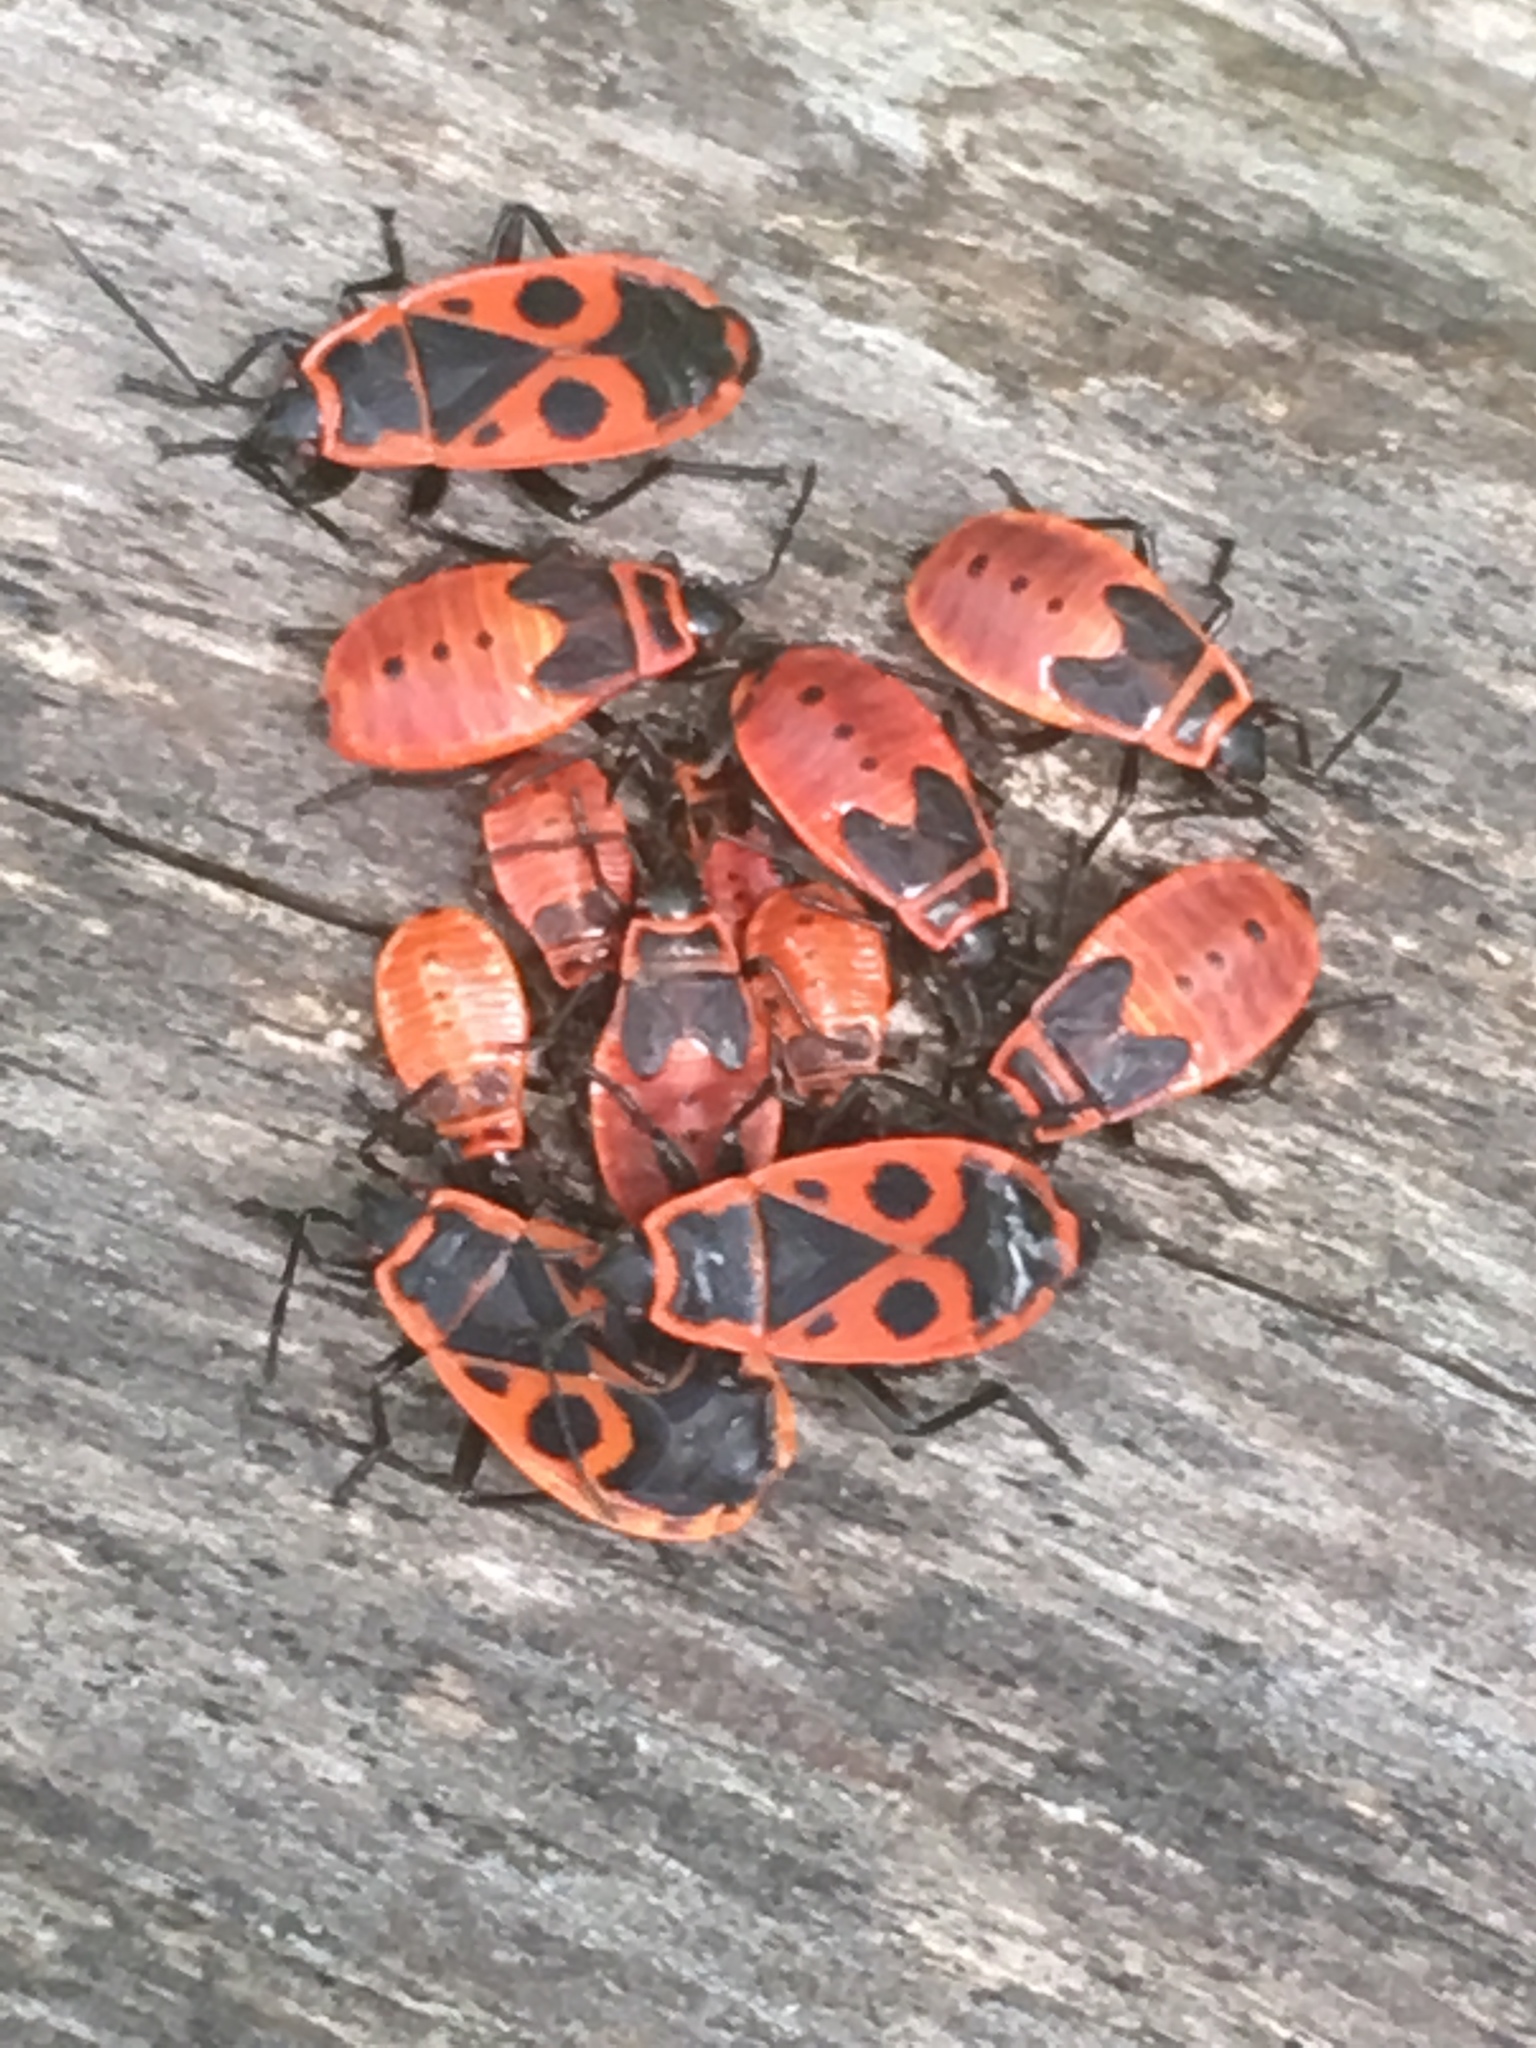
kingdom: Animalia
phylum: Arthropoda
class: Insecta
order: Hemiptera
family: Pyrrhocoridae
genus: Pyrrhocoris
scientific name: Pyrrhocoris apterus
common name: Firebug
